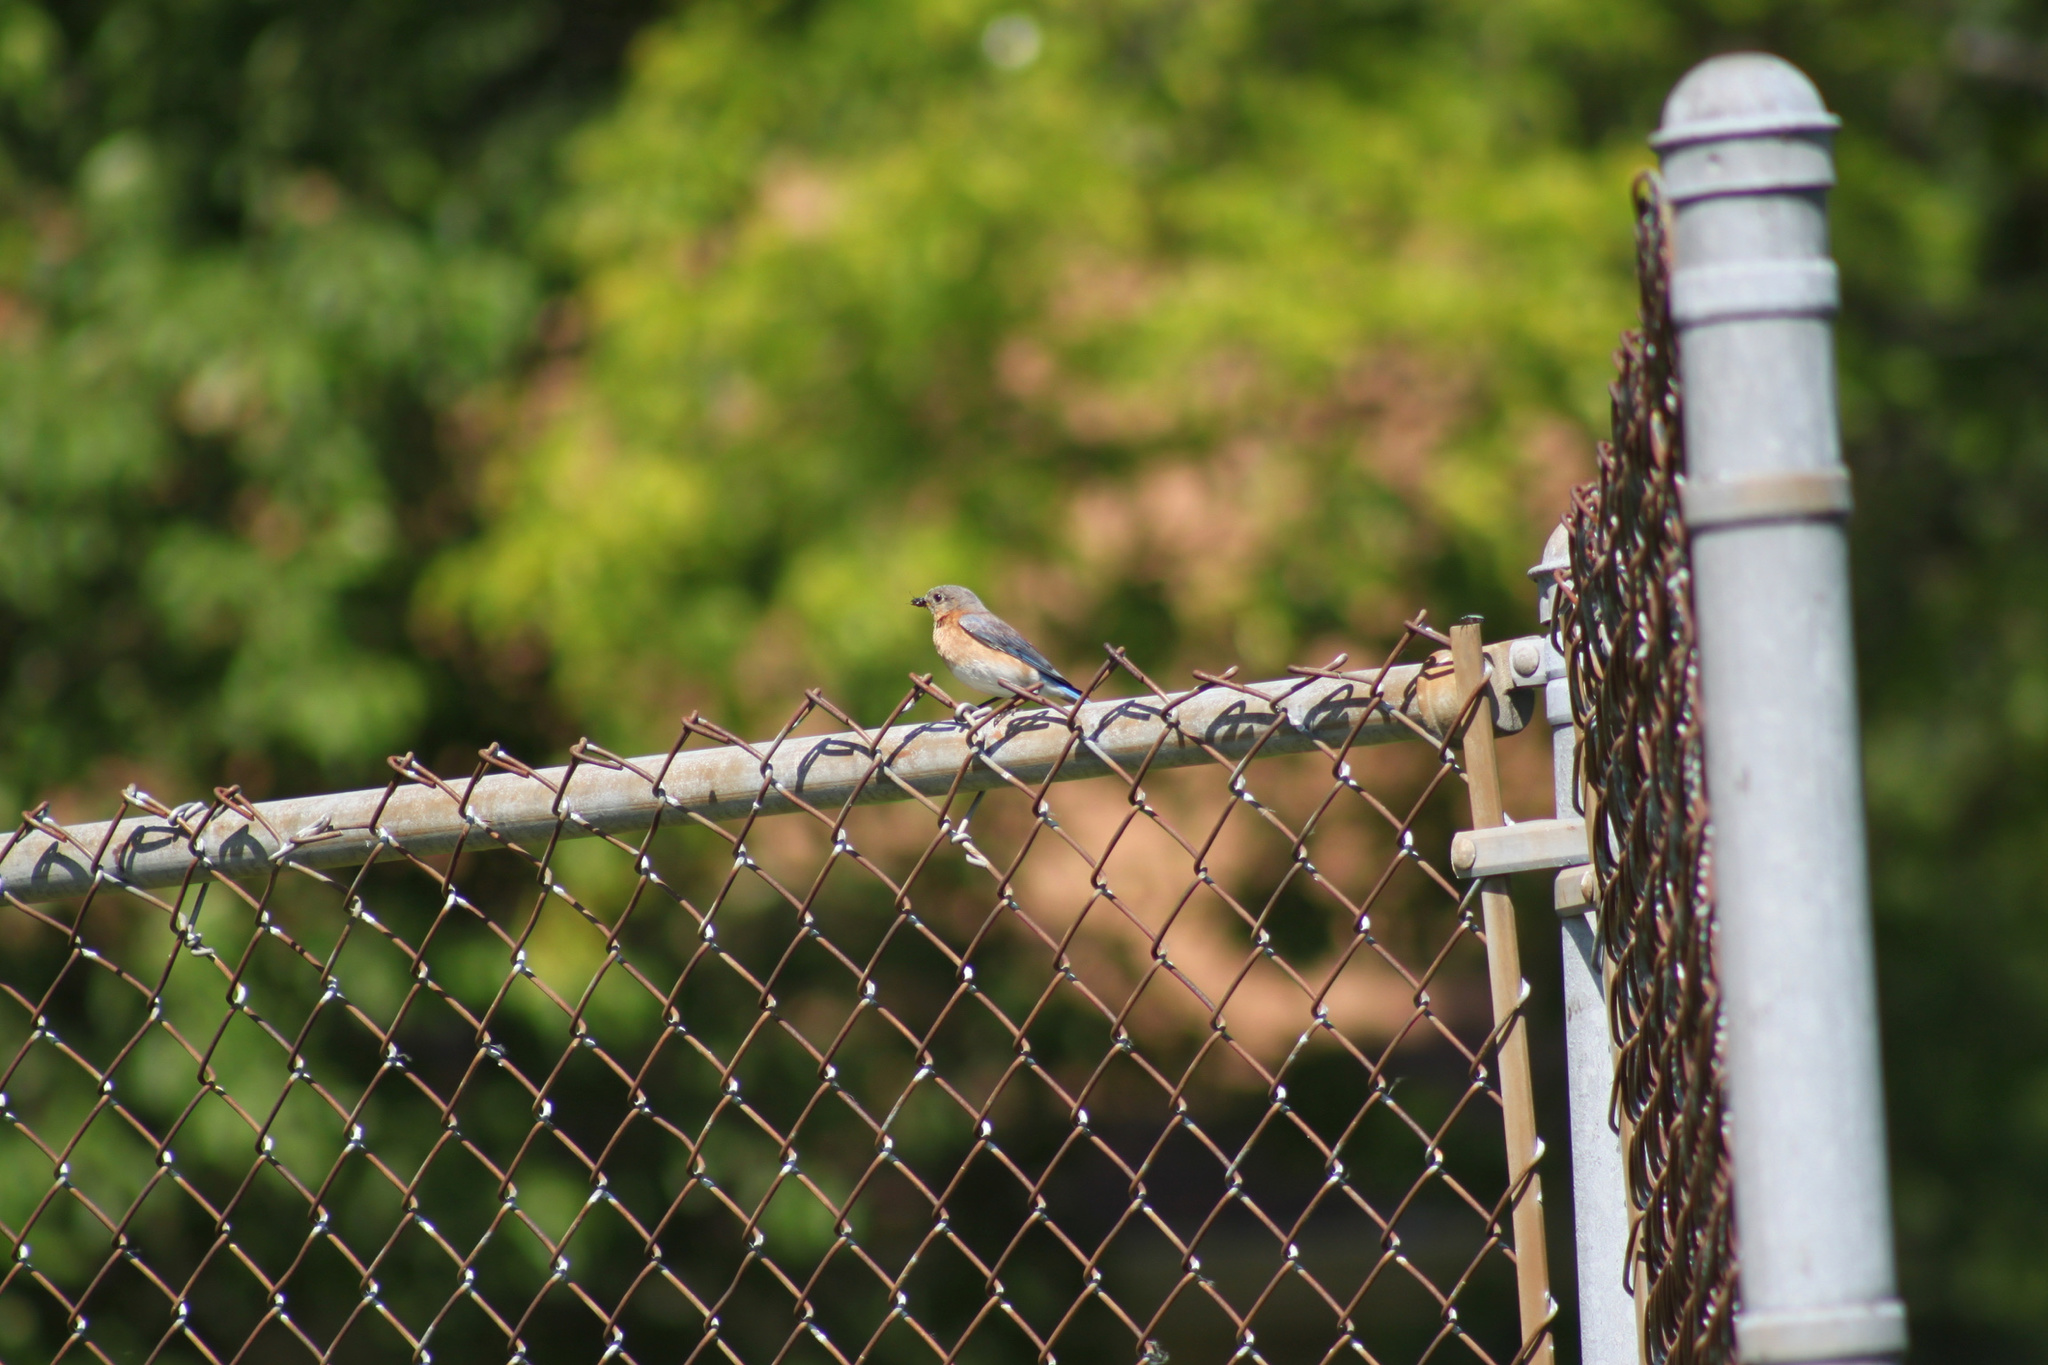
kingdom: Animalia
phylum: Chordata
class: Aves
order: Passeriformes
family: Turdidae
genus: Sialia
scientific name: Sialia sialis
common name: Eastern bluebird
